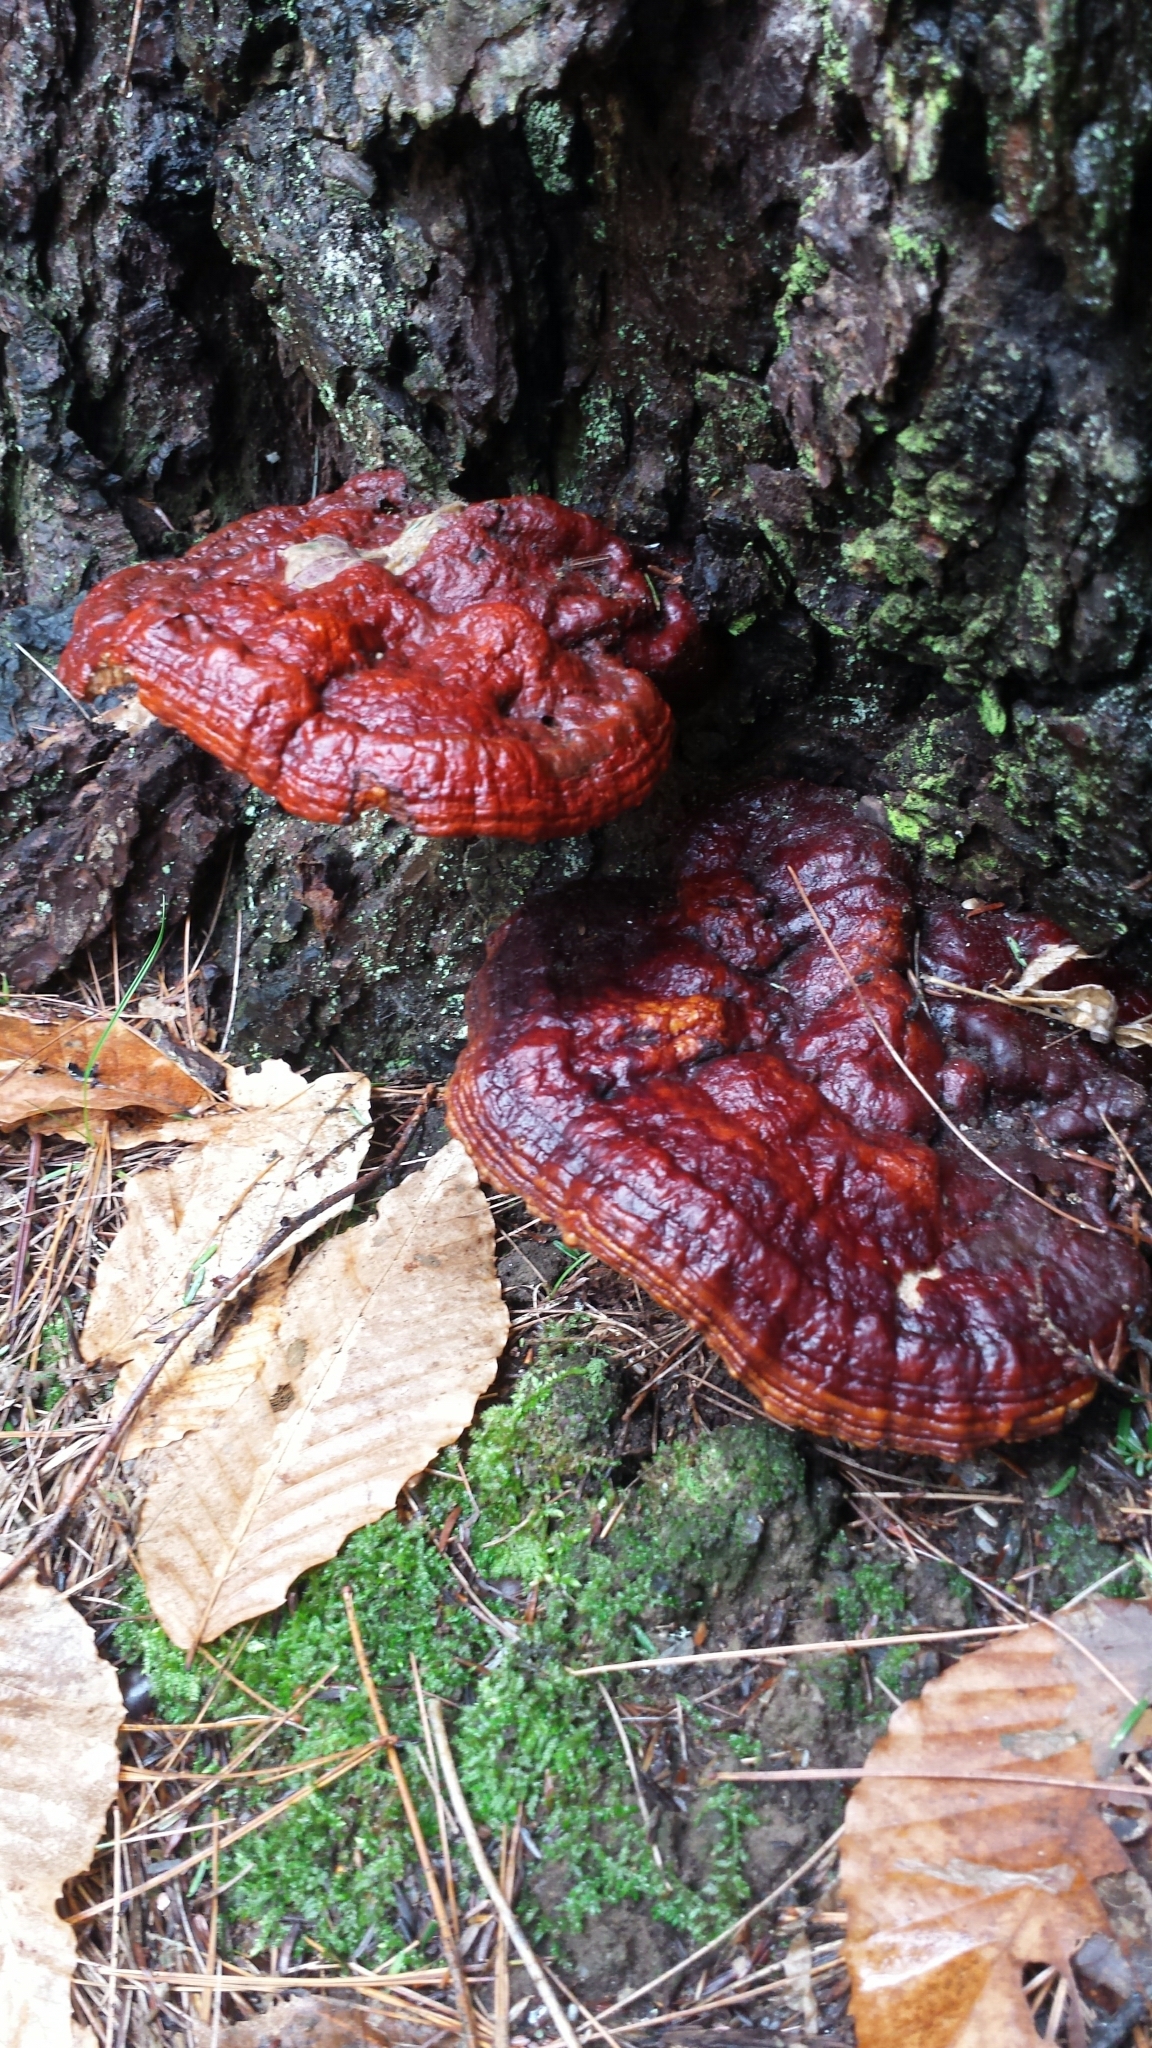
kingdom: Fungi
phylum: Basidiomycota
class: Agaricomycetes
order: Polyporales
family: Polyporaceae
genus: Ganoderma
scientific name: Ganoderma tsugae
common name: Hemlock varnish shelf
